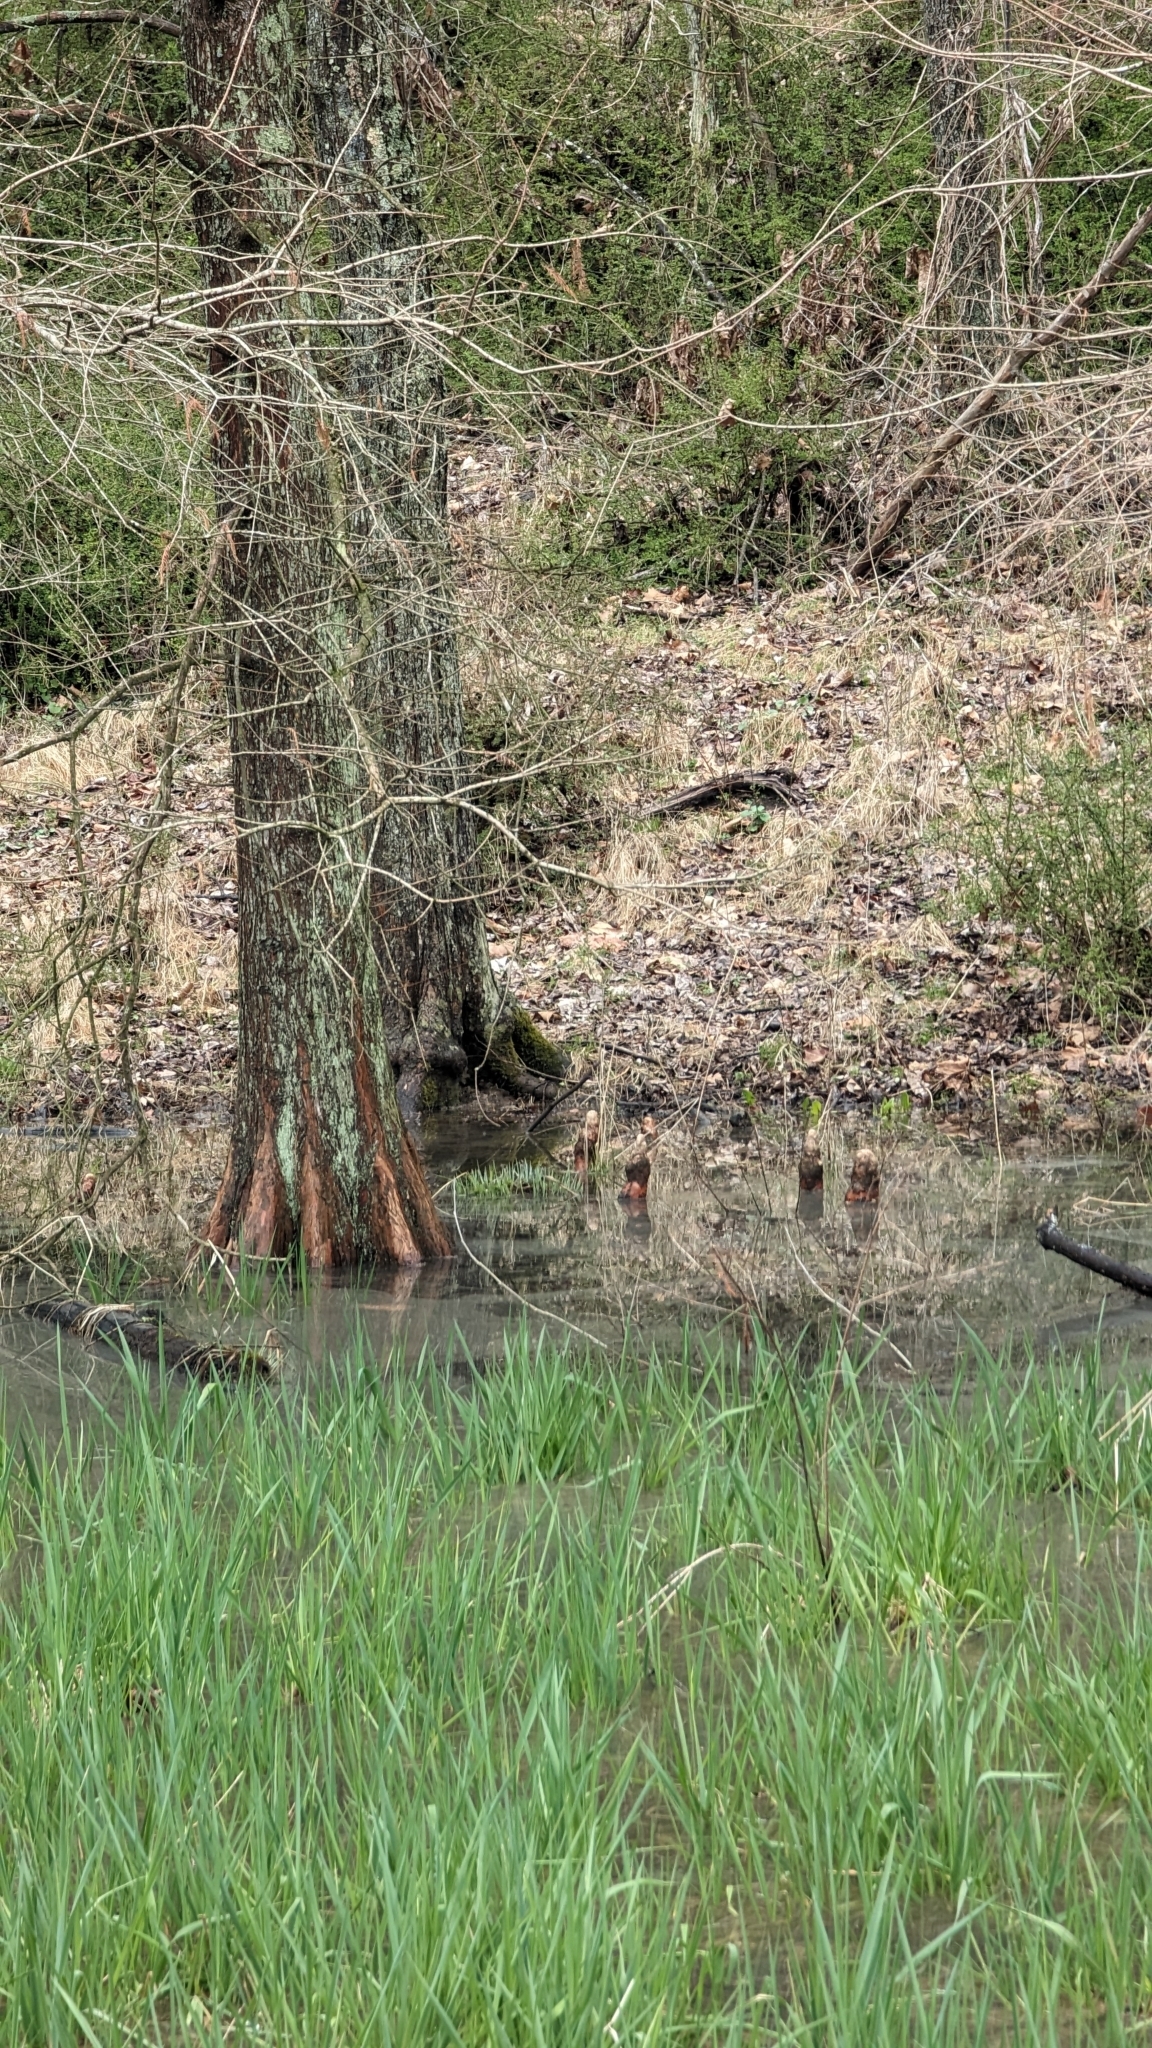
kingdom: Plantae
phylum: Tracheophyta
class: Pinopsida
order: Pinales
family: Cupressaceae
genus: Taxodium
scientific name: Taxodium distichum
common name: Bald cypress
